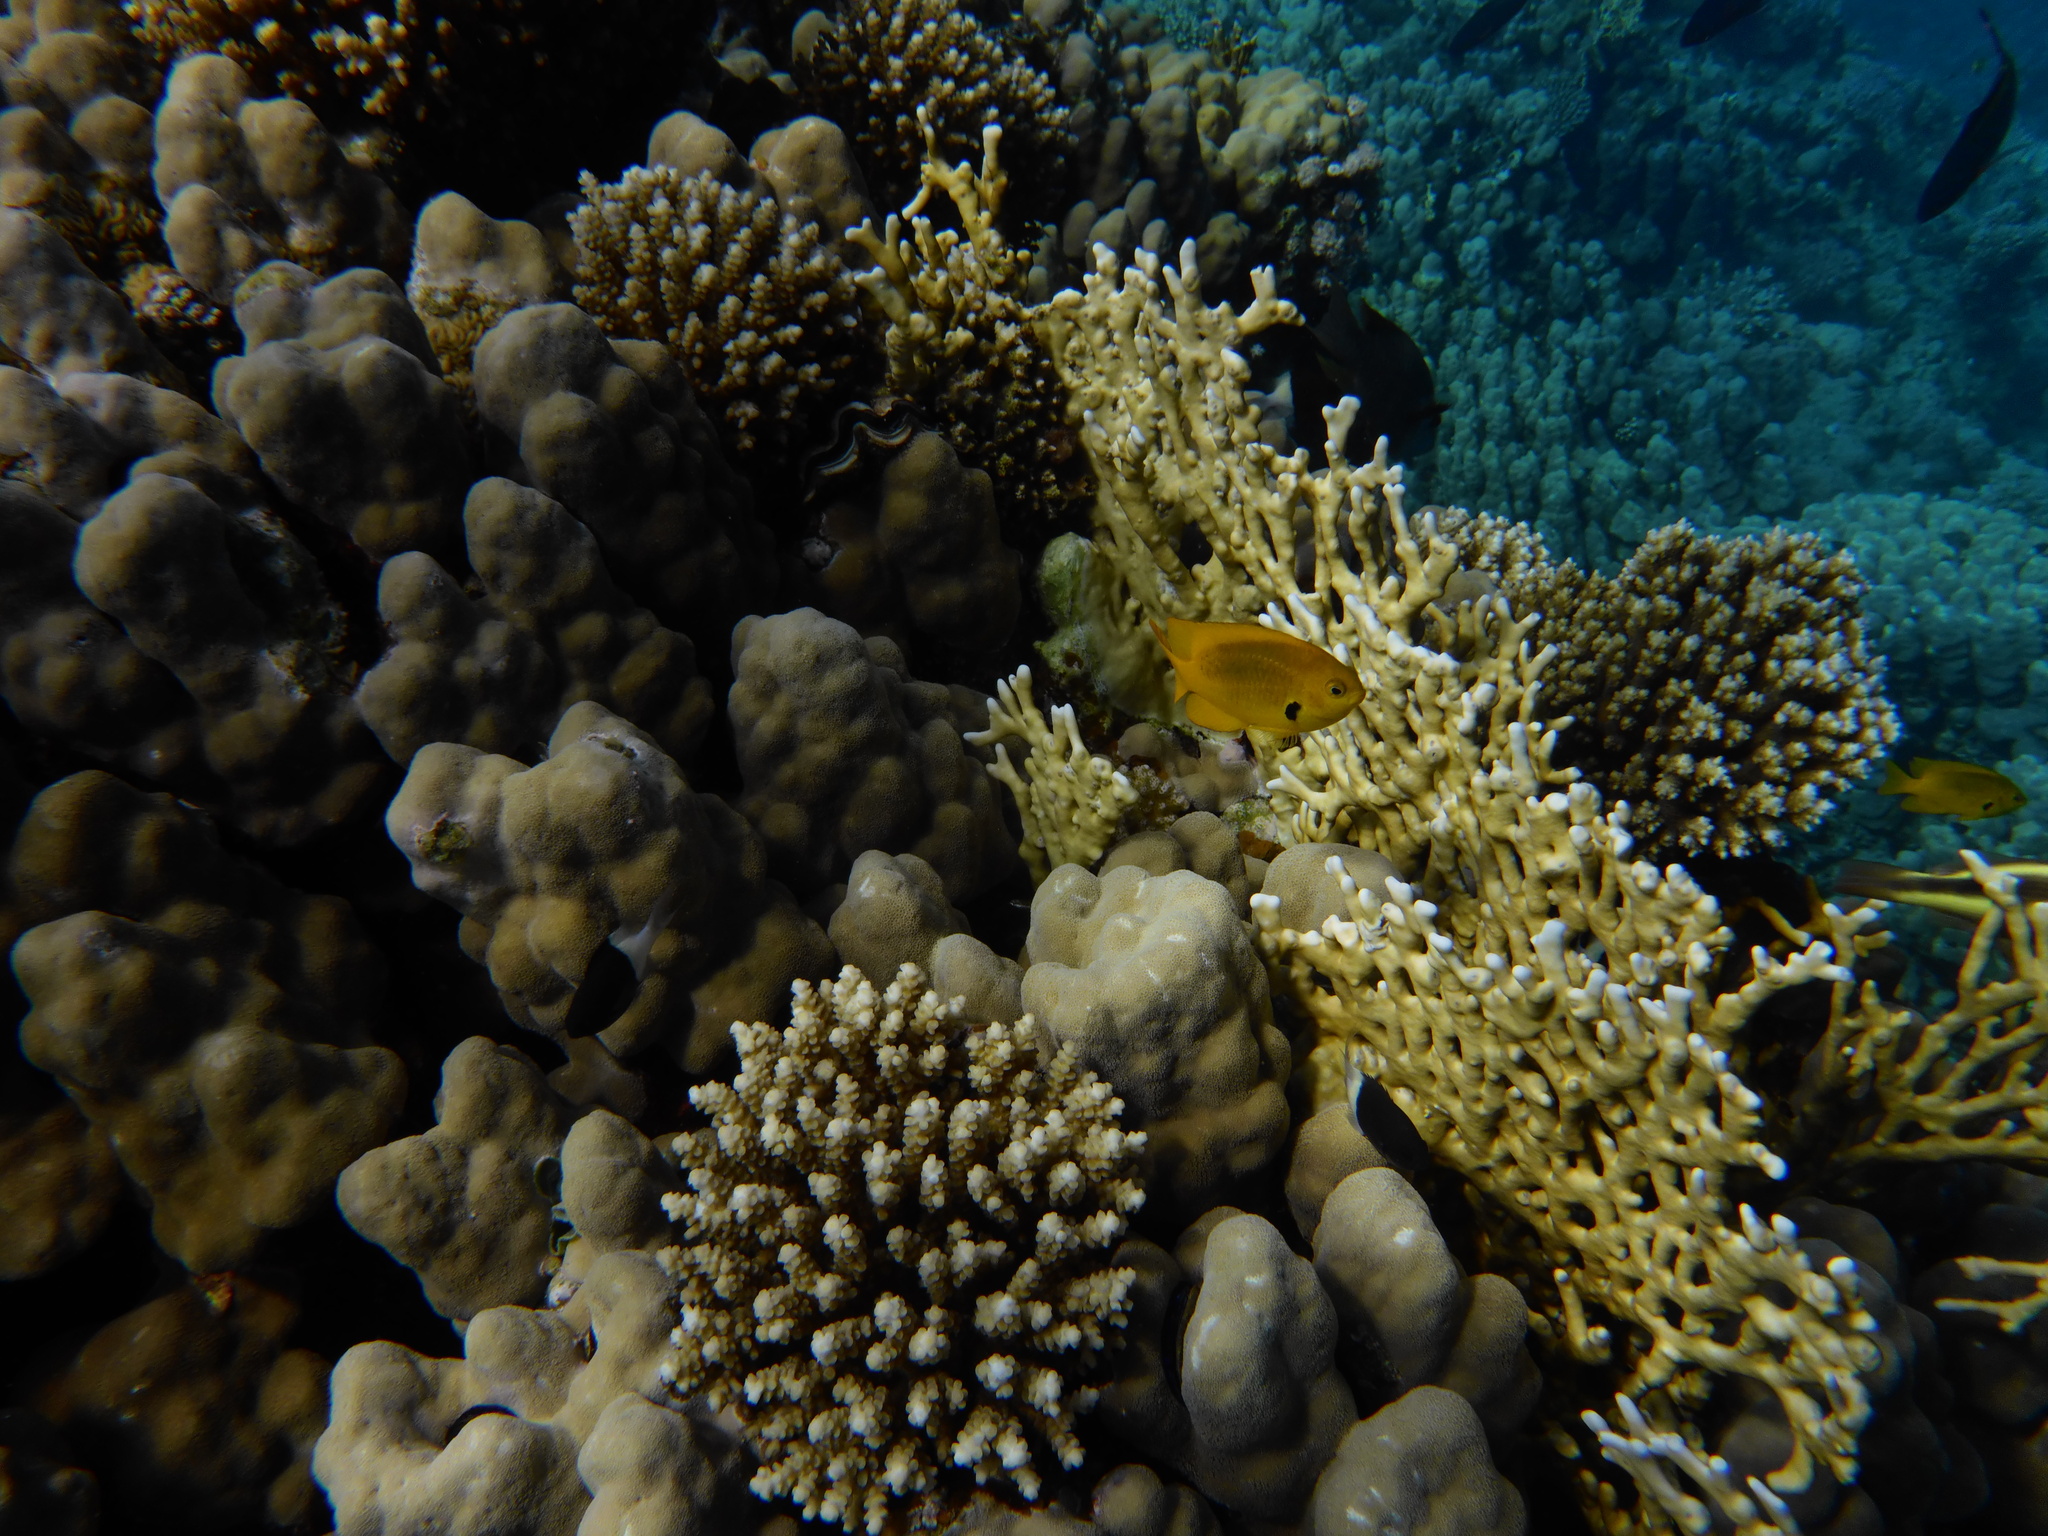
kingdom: Animalia
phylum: Chordata
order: Perciformes
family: Pomacentridae
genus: Pomacentrus
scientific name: Pomacentrus sulfureus
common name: Sulfur damsel
